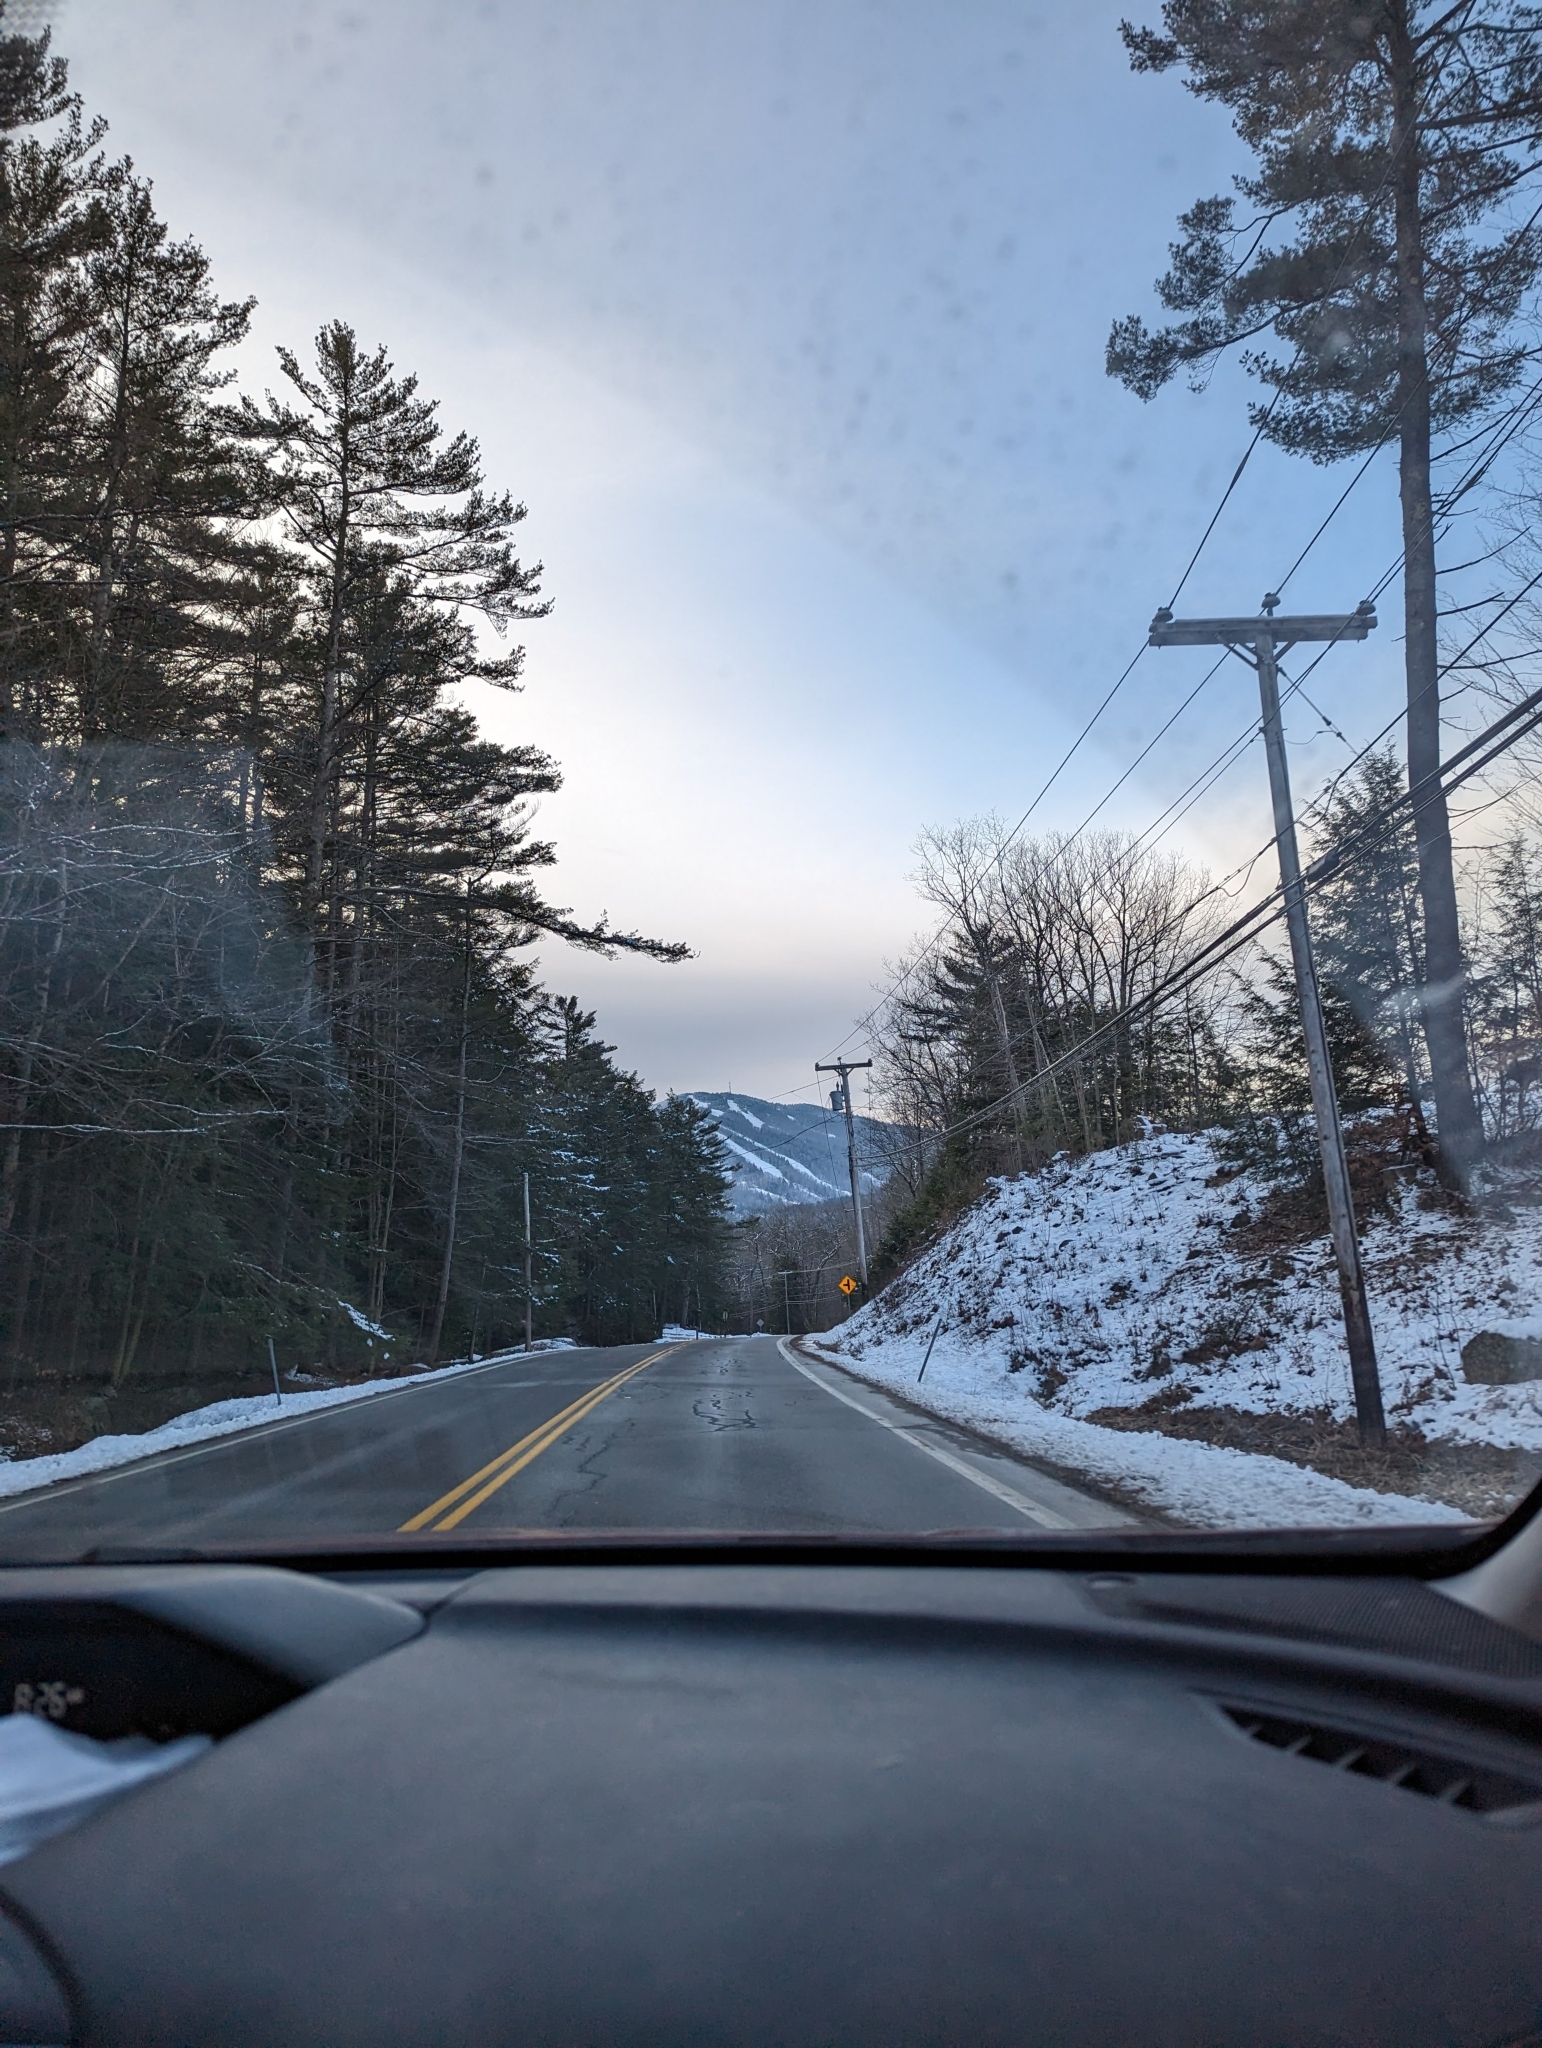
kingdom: Plantae
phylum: Tracheophyta
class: Pinopsida
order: Pinales
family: Pinaceae
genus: Pinus
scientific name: Pinus strobus
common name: Weymouth pine
